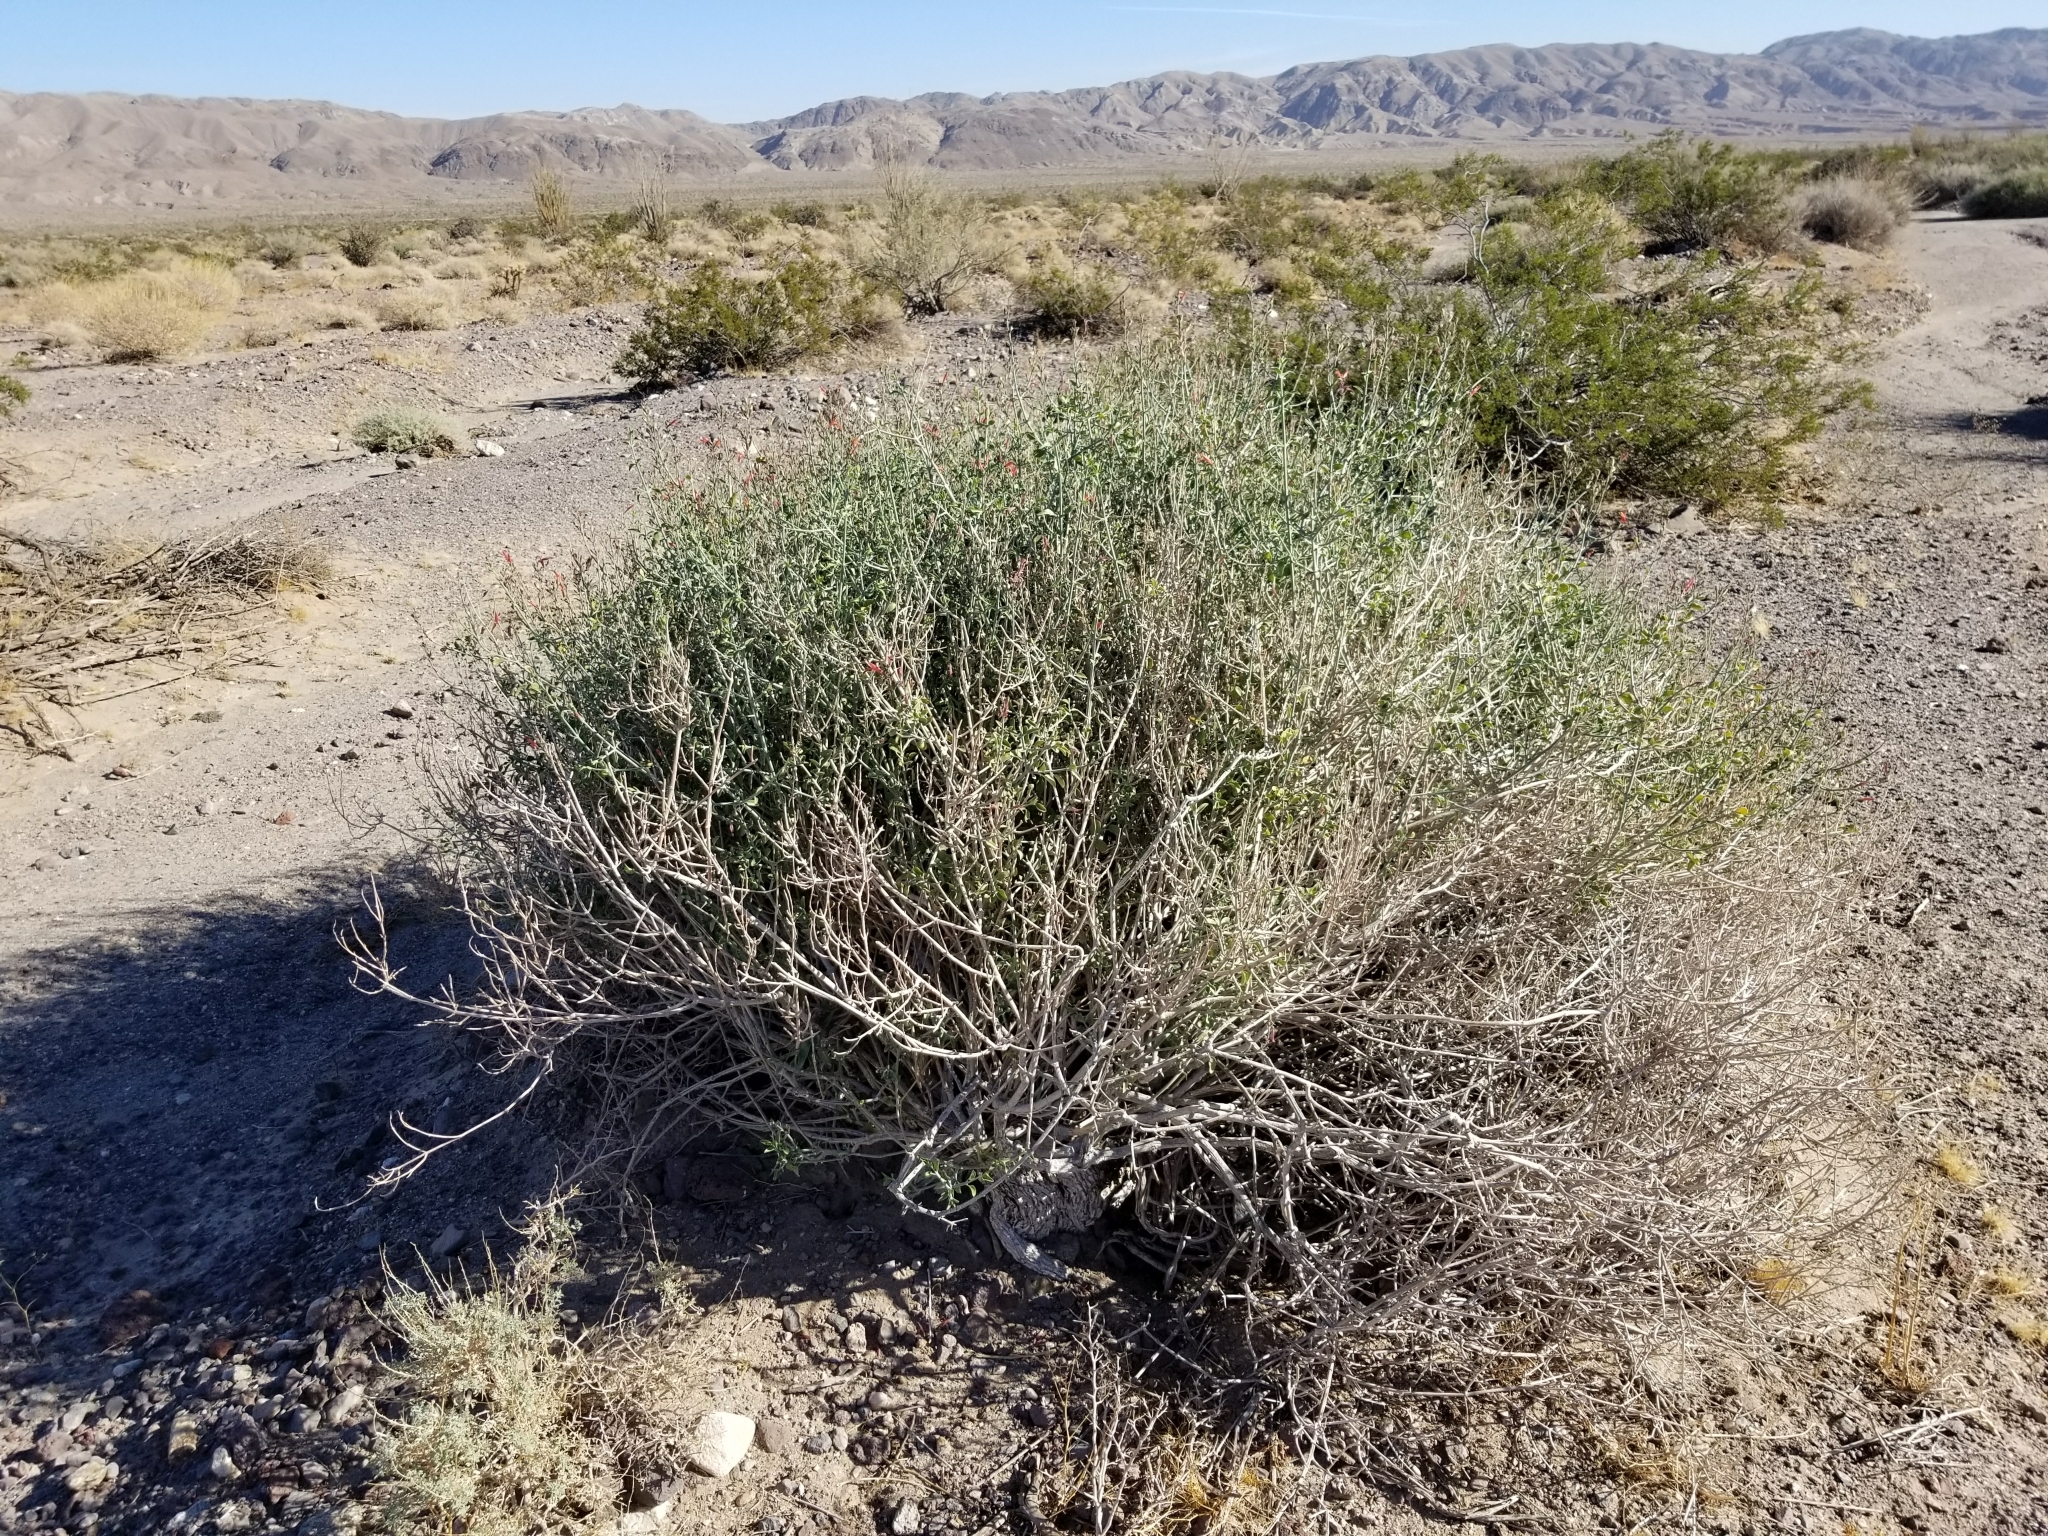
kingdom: Plantae
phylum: Tracheophyta
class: Magnoliopsida
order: Lamiales
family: Acanthaceae
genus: Justicia
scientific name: Justicia californica
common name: Chuparosa-honeysuckle
